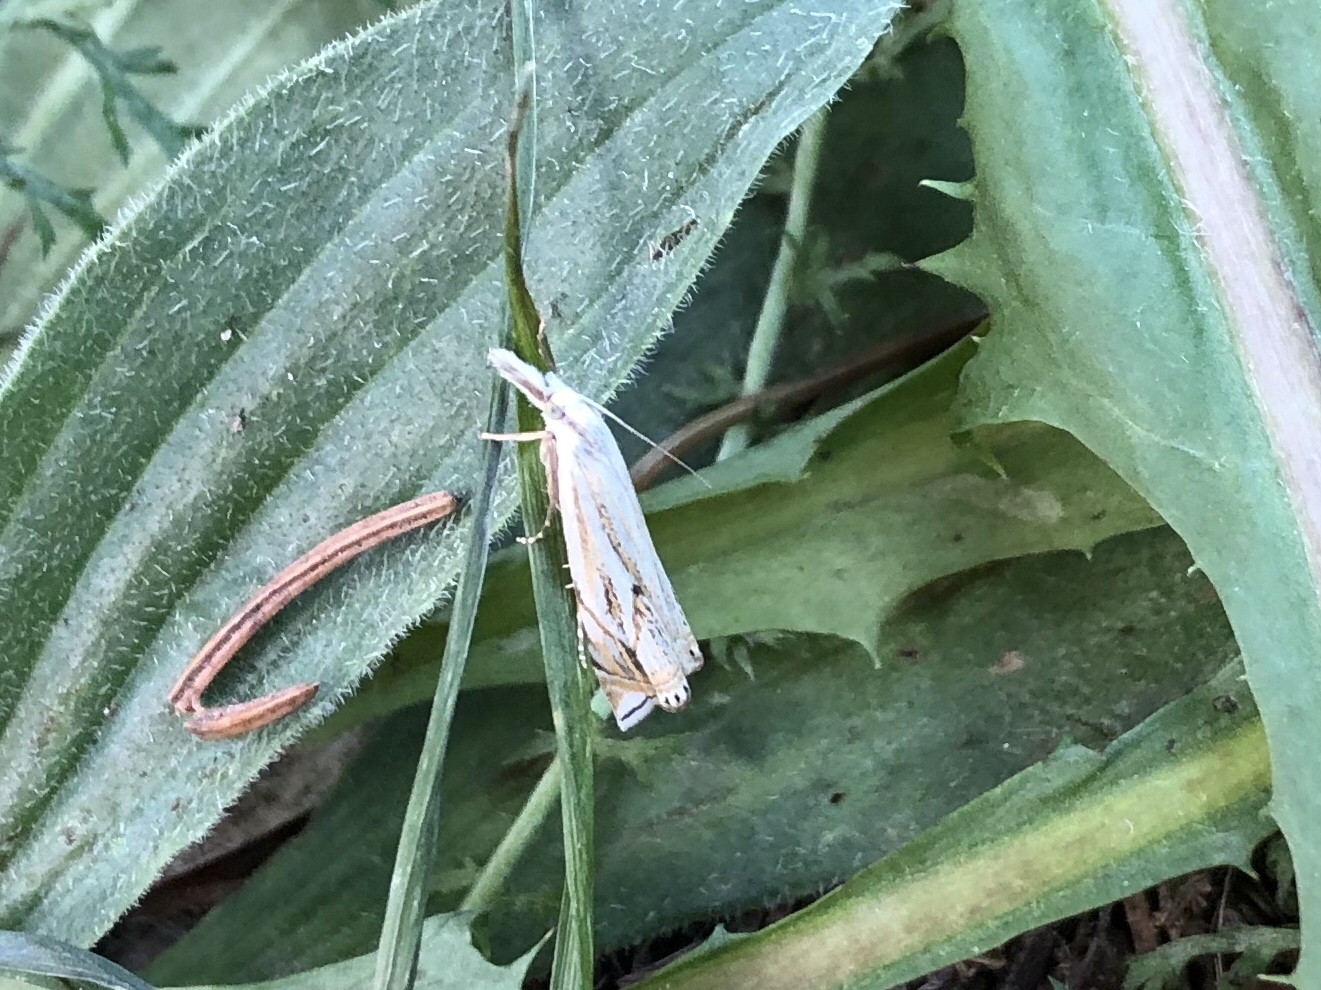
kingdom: Animalia
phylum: Arthropoda
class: Insecta
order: Lepidoptera
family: Crambidae
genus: Crambus
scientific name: Crambus nemorella
